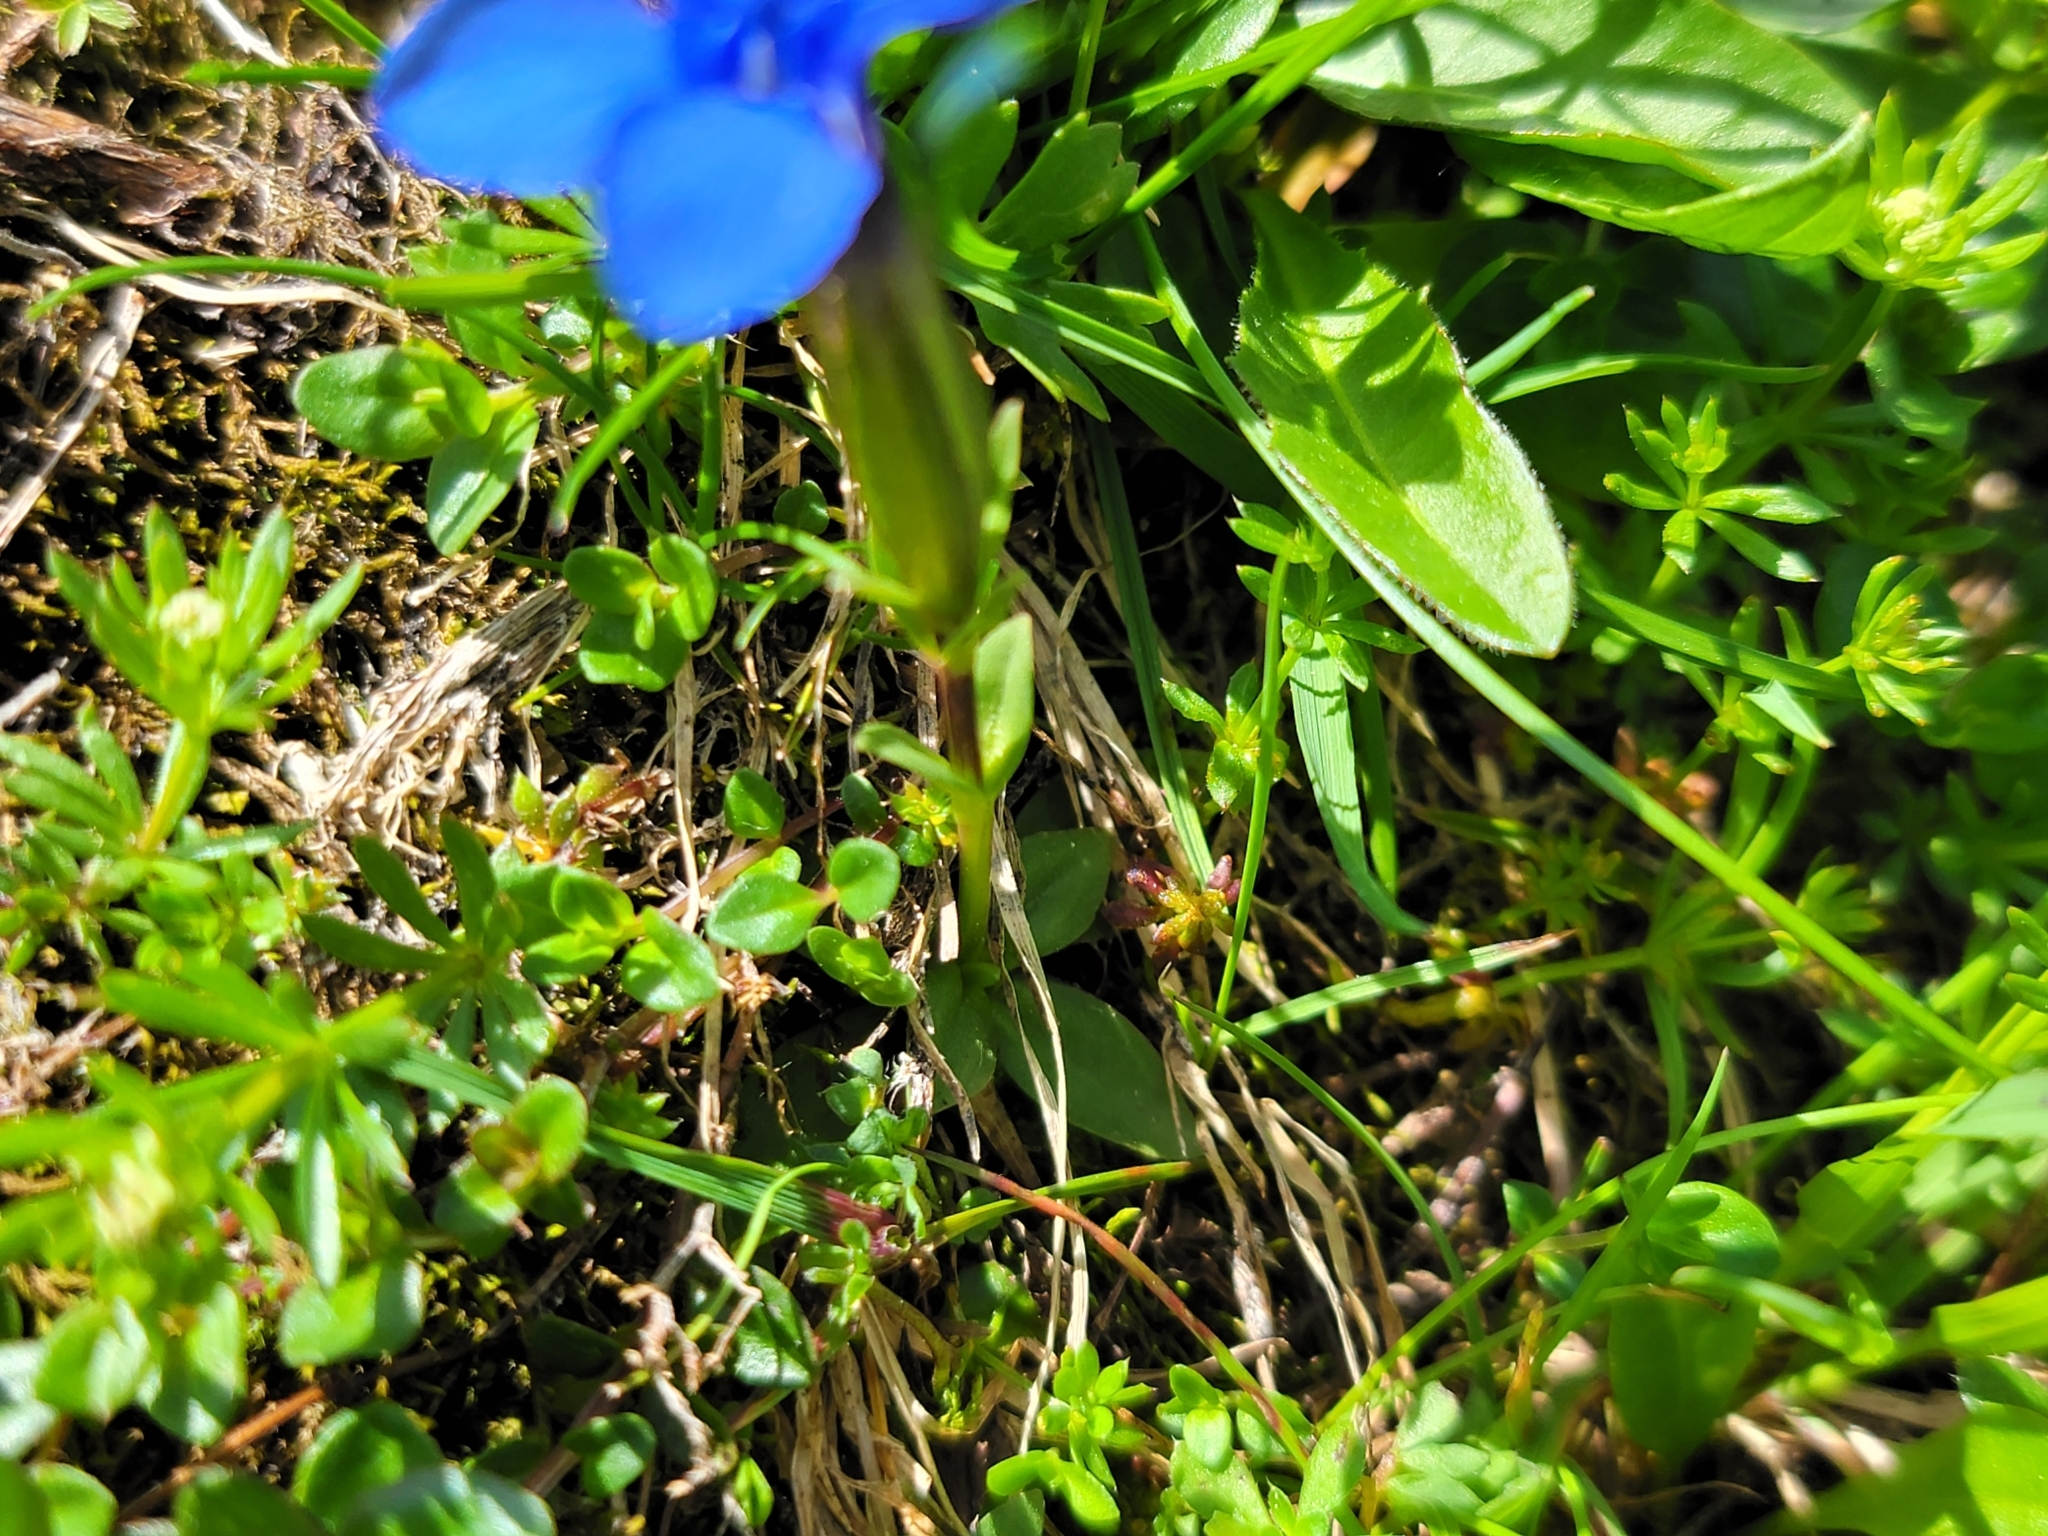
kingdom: Plantae
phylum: Tracheophyta
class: Magnoliopsida
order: Gentianales
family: Gentianaceae
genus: Gentiana
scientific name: Gentiana verna
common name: Spring gentian
